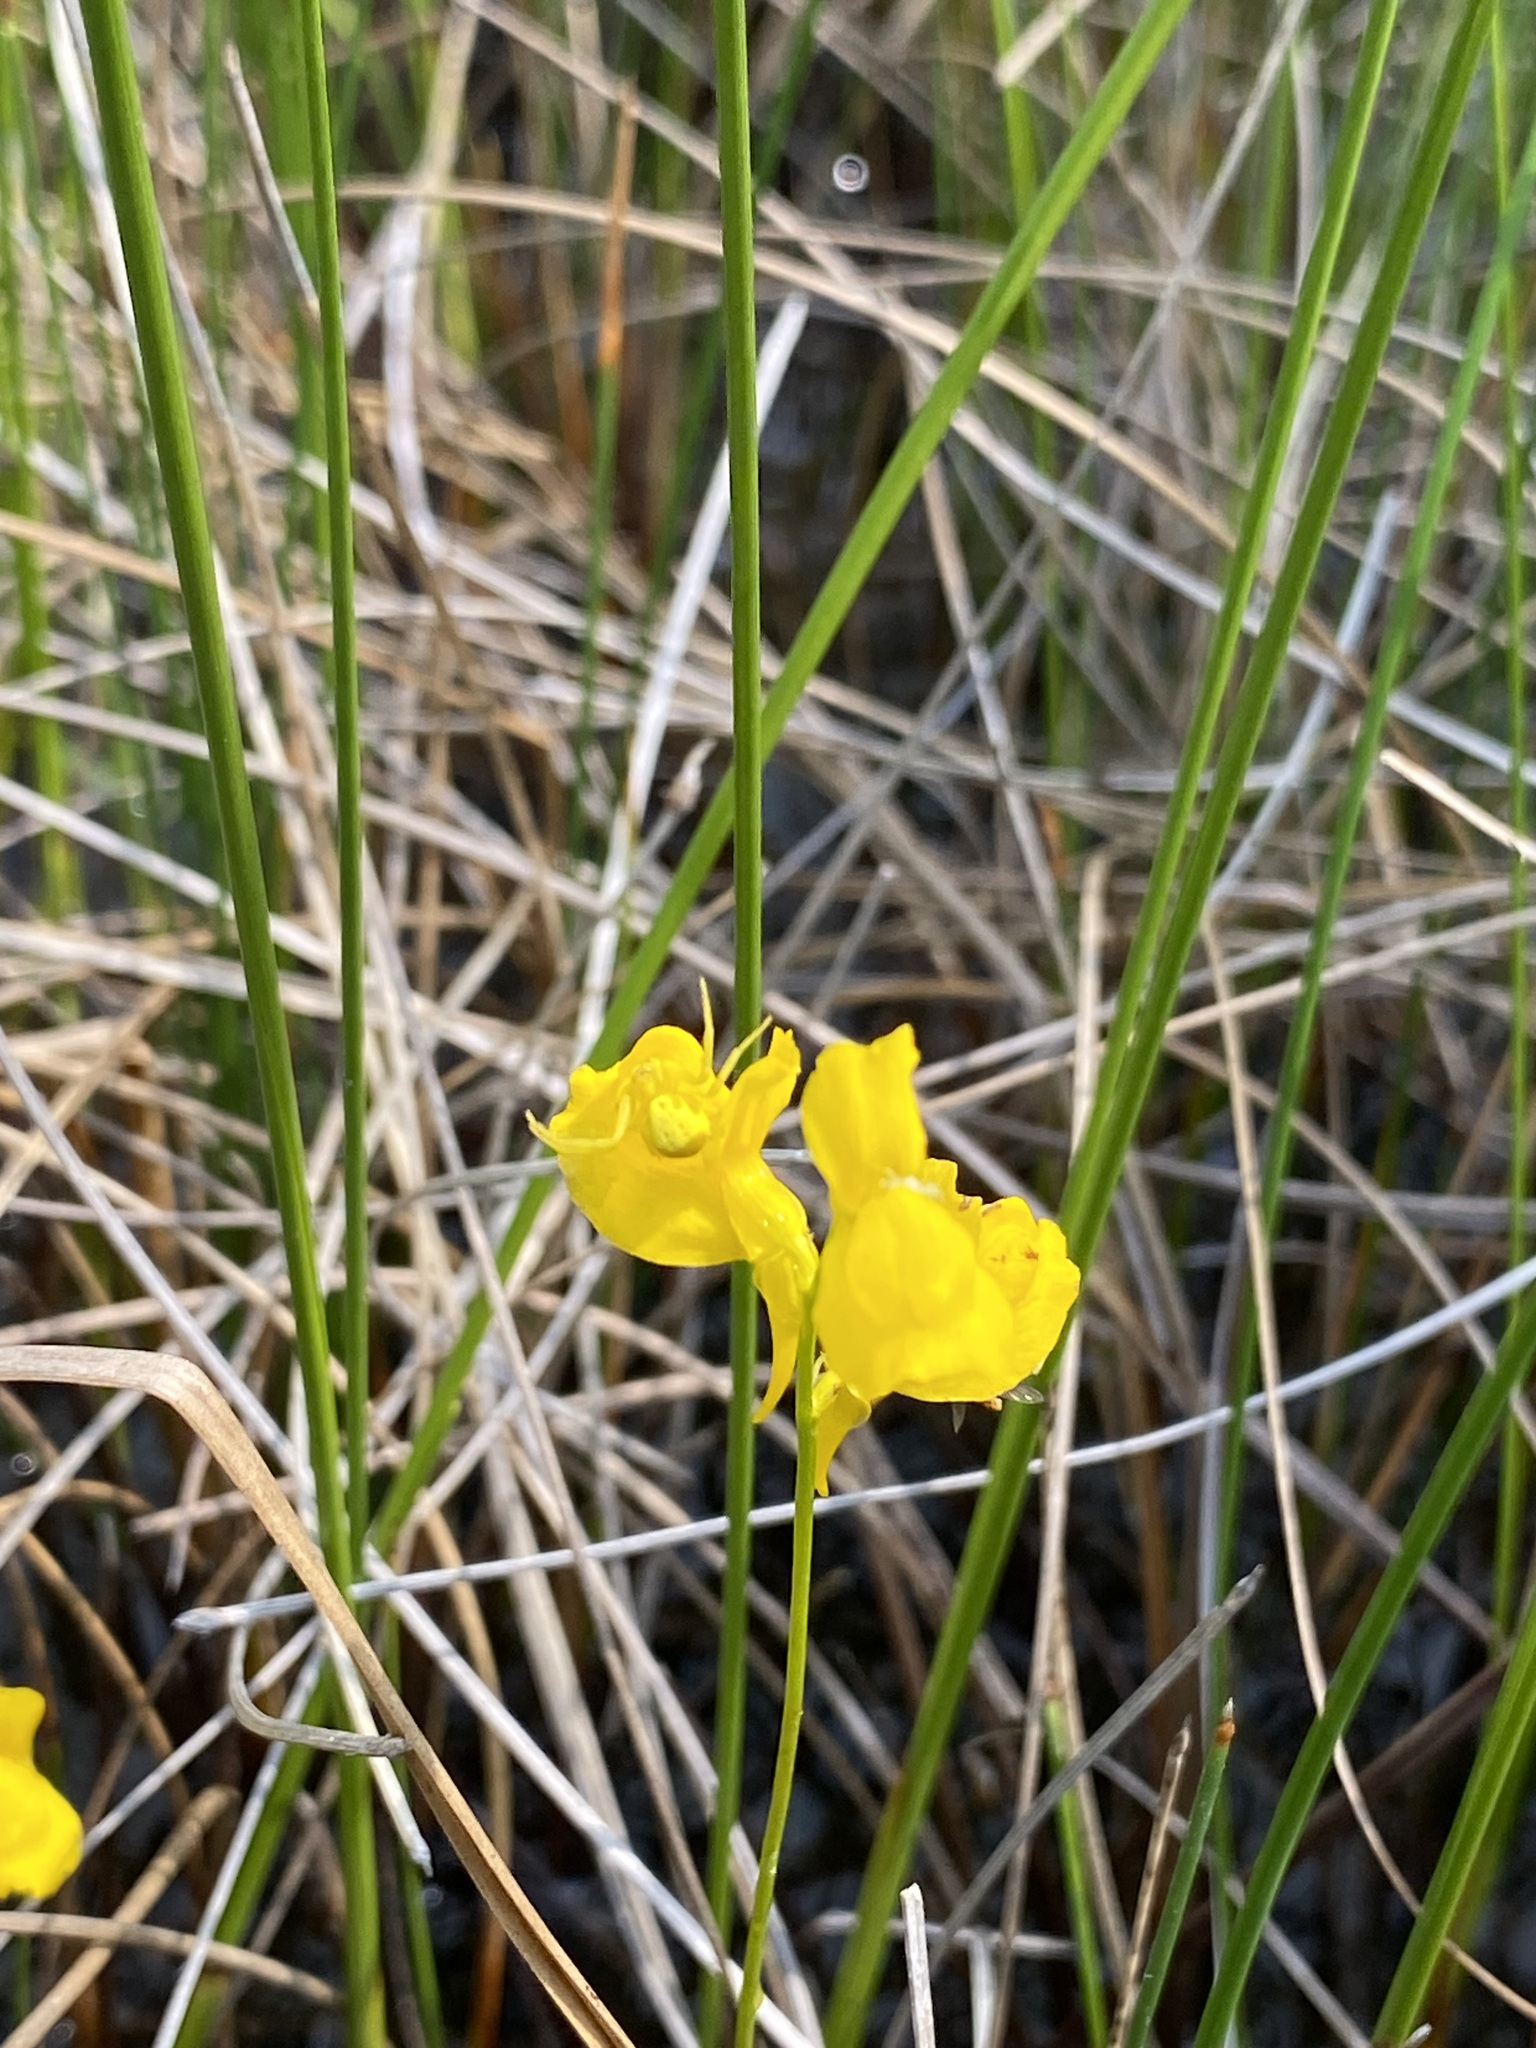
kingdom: Plantae
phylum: Tracheophyta
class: Magnoliopsida
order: Lamiales
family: Lentibulariaceae
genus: Utricularia
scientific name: Utricularia cornuta
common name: Horned bladderwort
